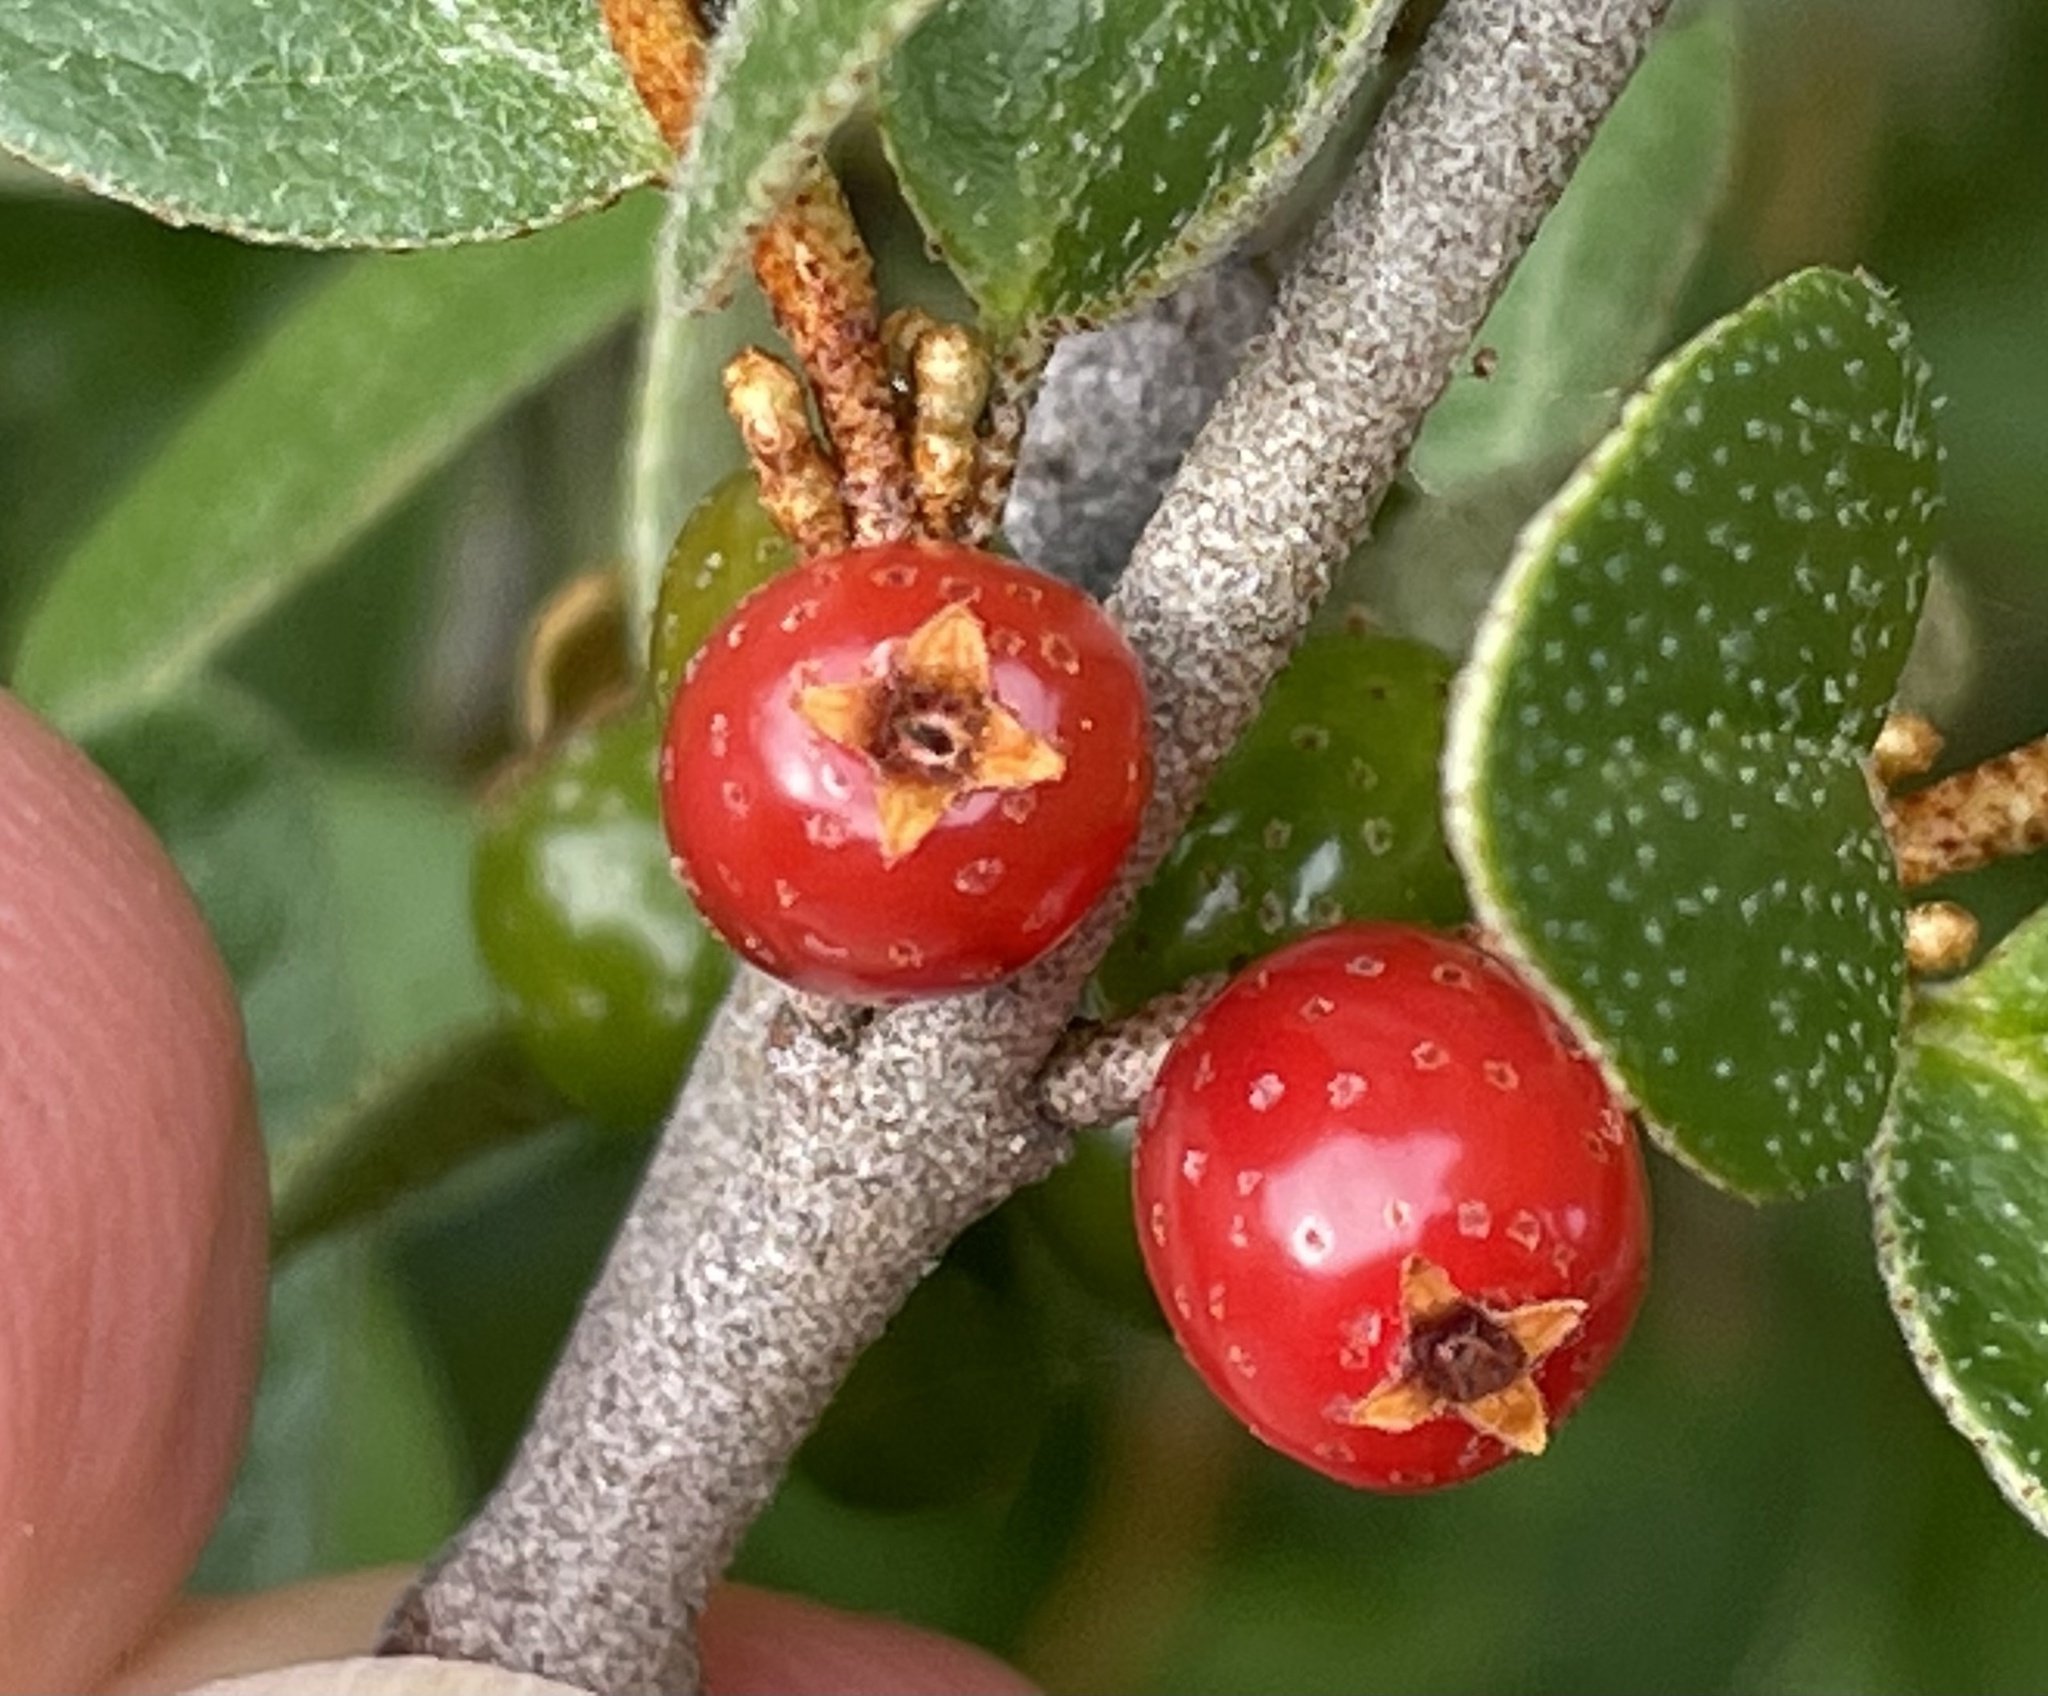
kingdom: Plantae
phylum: Tracheophyta
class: Magnoliopsida
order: Rosales
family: Elaeagnaceae
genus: Shepherdia
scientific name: Shepherdia canadensis
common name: Soapberry
